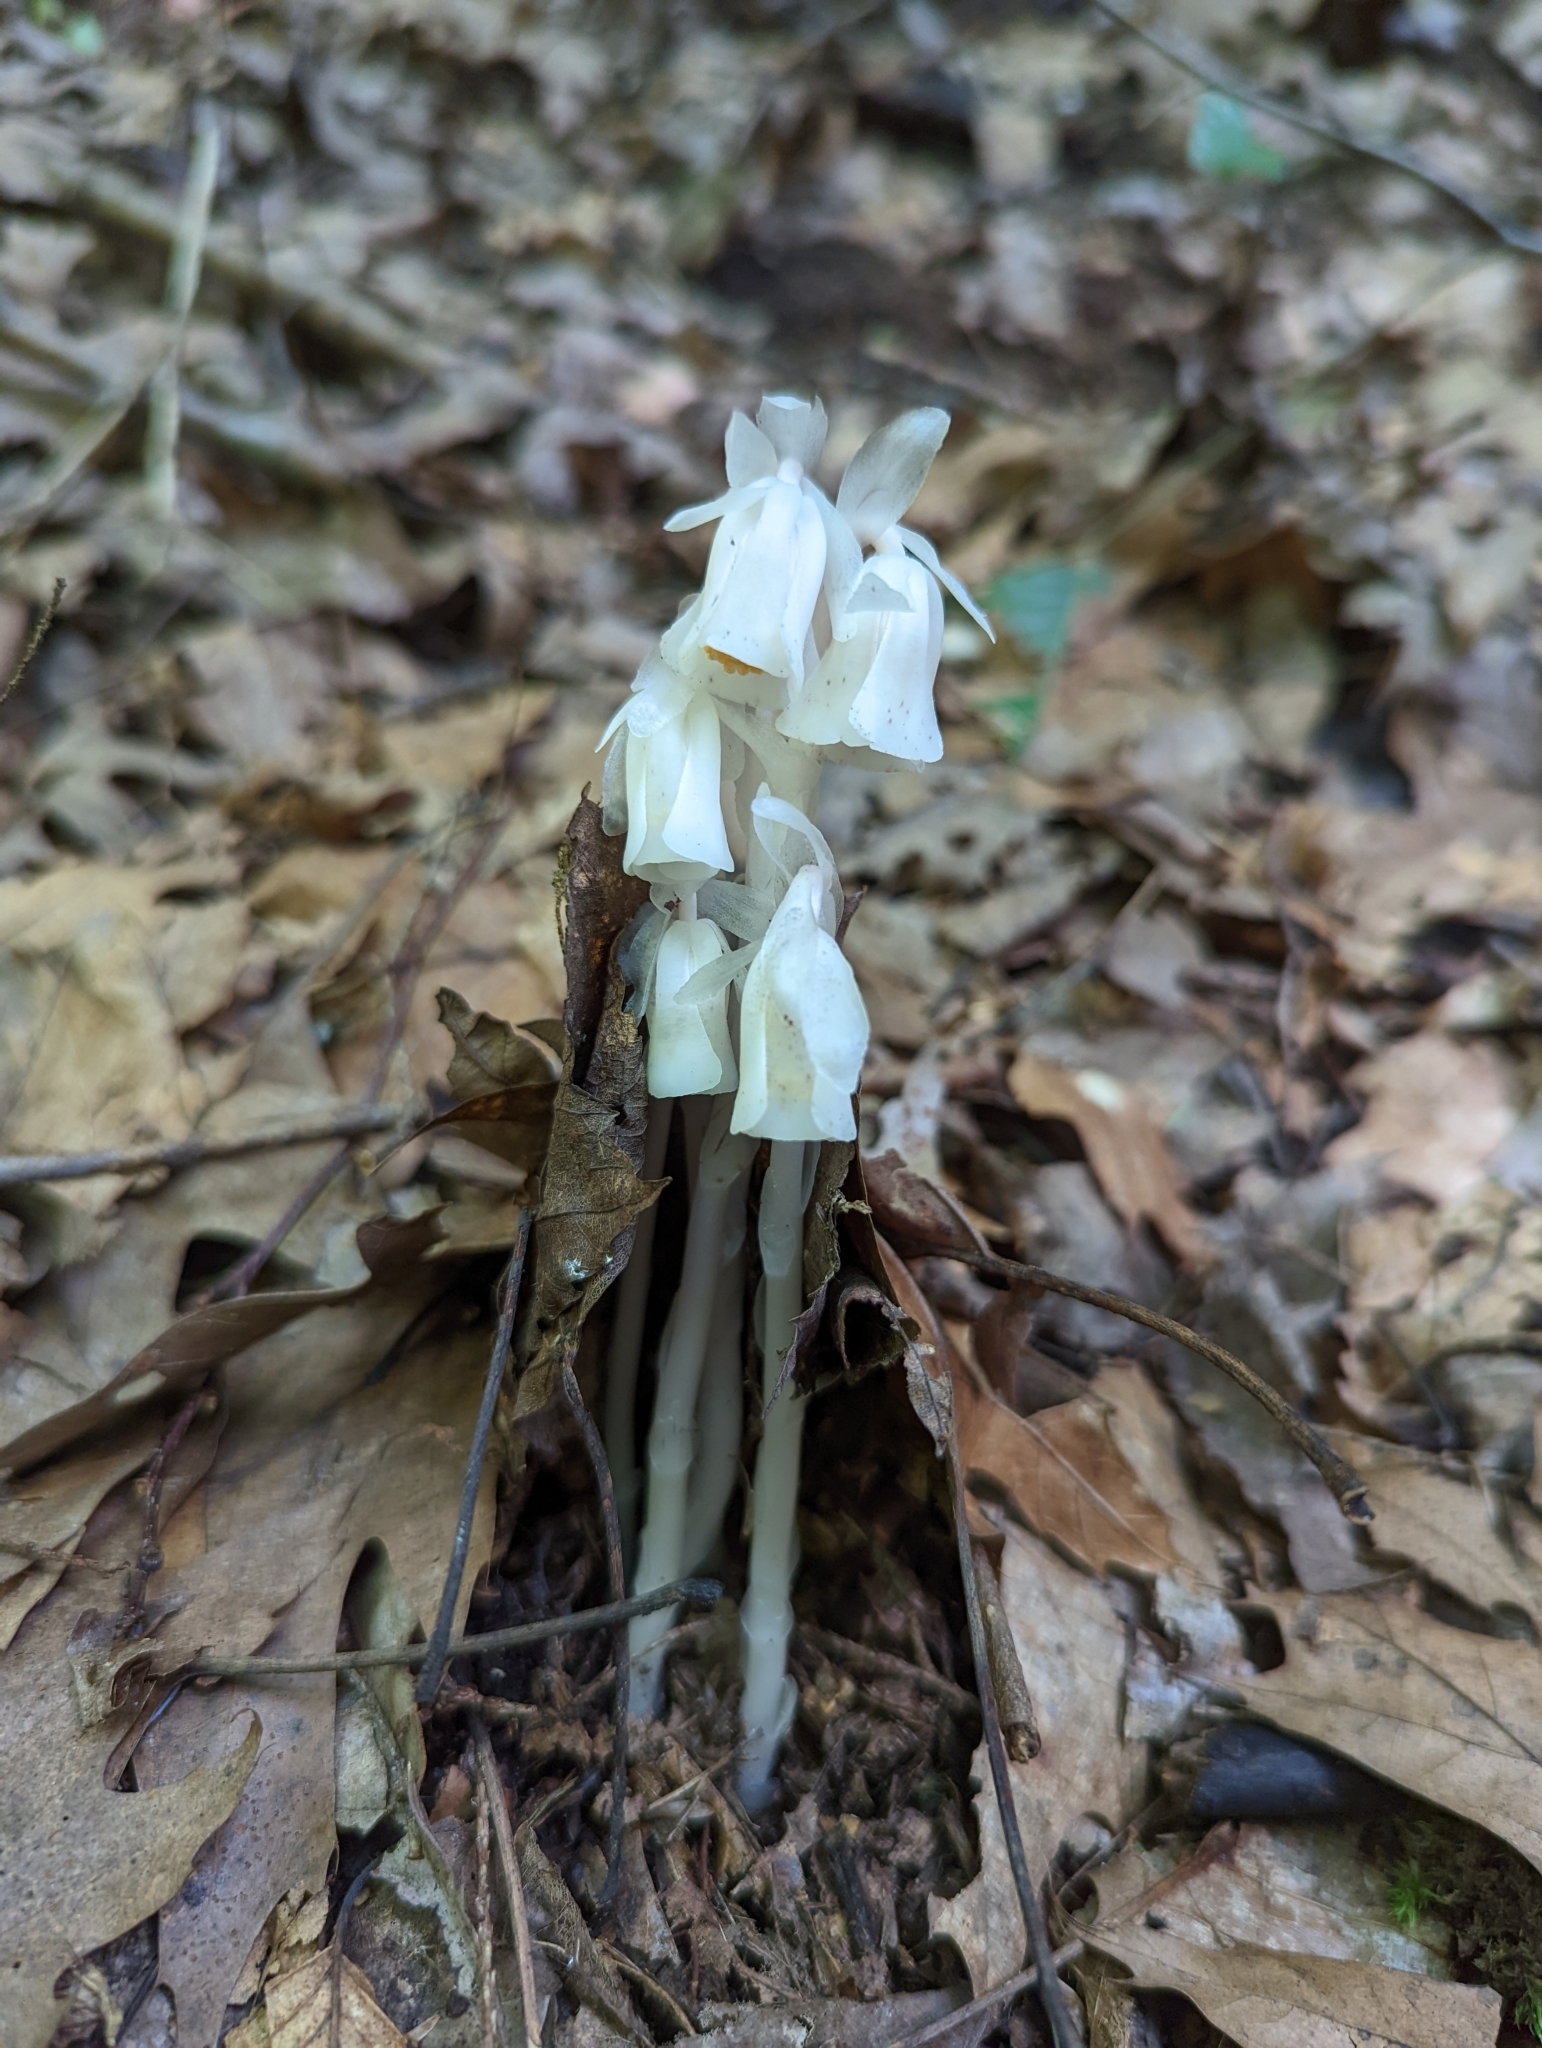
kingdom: Plantae
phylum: Tracheophyta
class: Magnoliopsida
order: Ericales
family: Ericaceae
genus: Monotropa
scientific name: Monotropa uniflora
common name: Convulsion root
